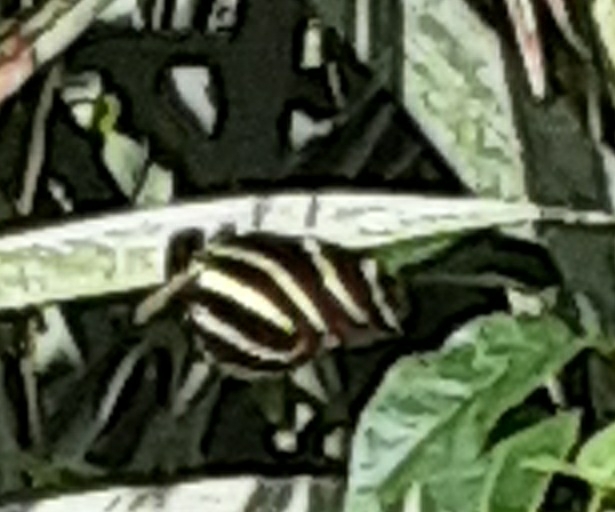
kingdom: Animalia
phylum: Arthropoda
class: Insecta
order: Lepidoptera
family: Nymphalidae
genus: Heliconius
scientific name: Heliconius charithonia
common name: Zebra long wing
